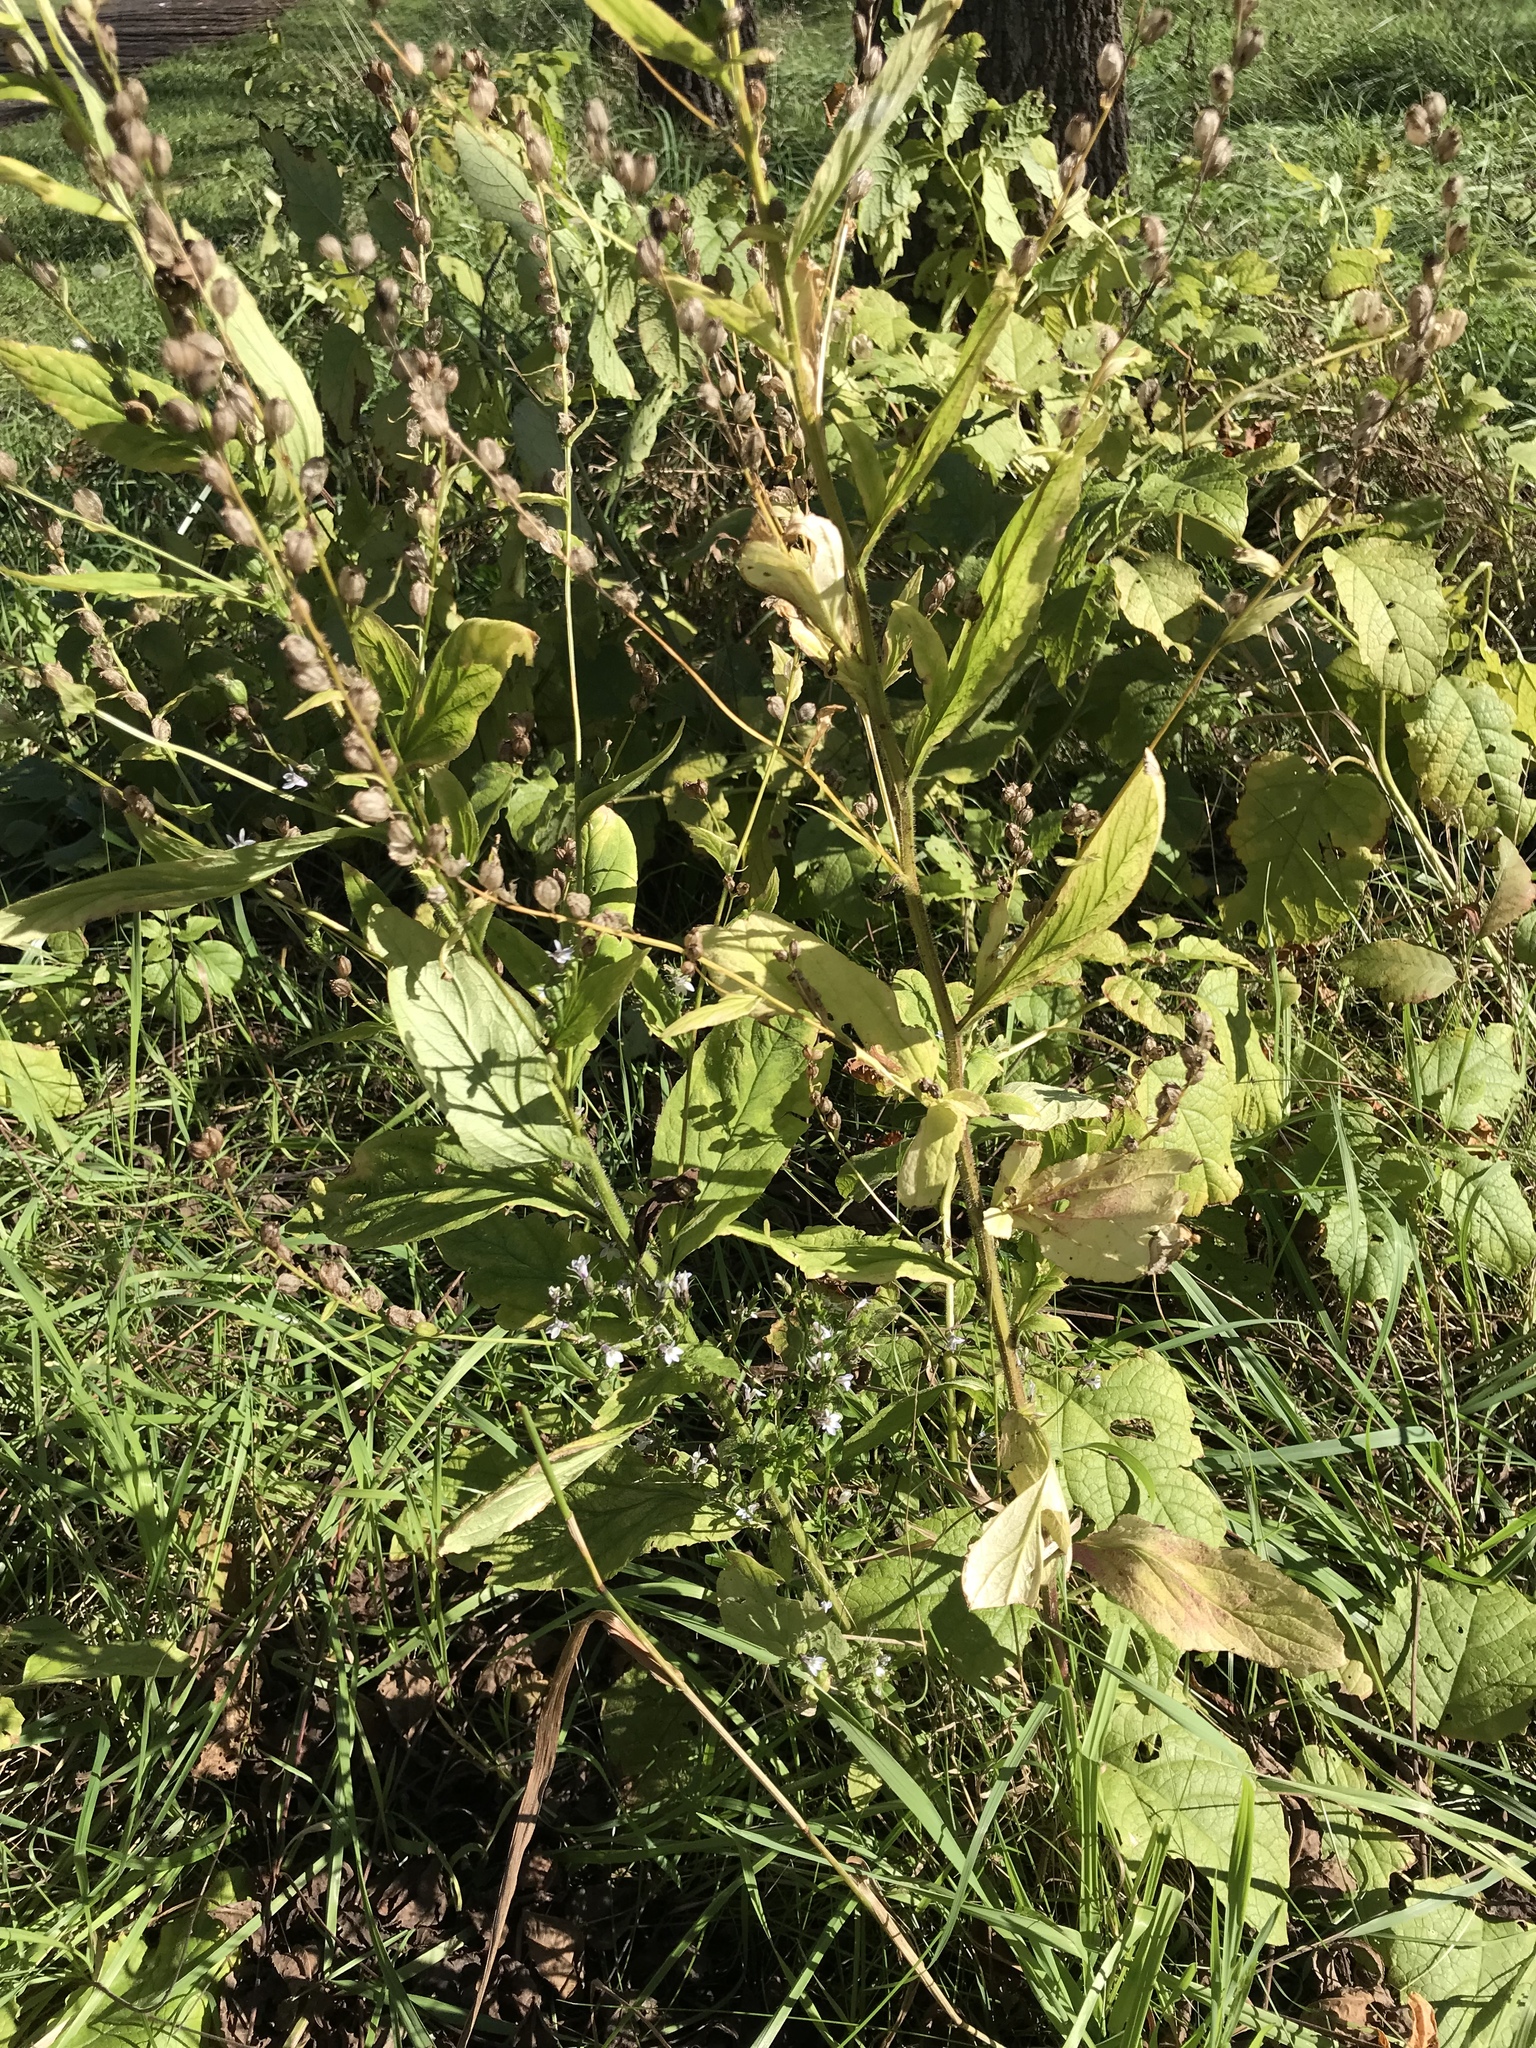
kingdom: Plantae
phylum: Tracheophyta
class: Magnoliopsida
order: Asterales
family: Campanulaceae
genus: Lobelia
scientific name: Lobelia inflata
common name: Indian tobacco
